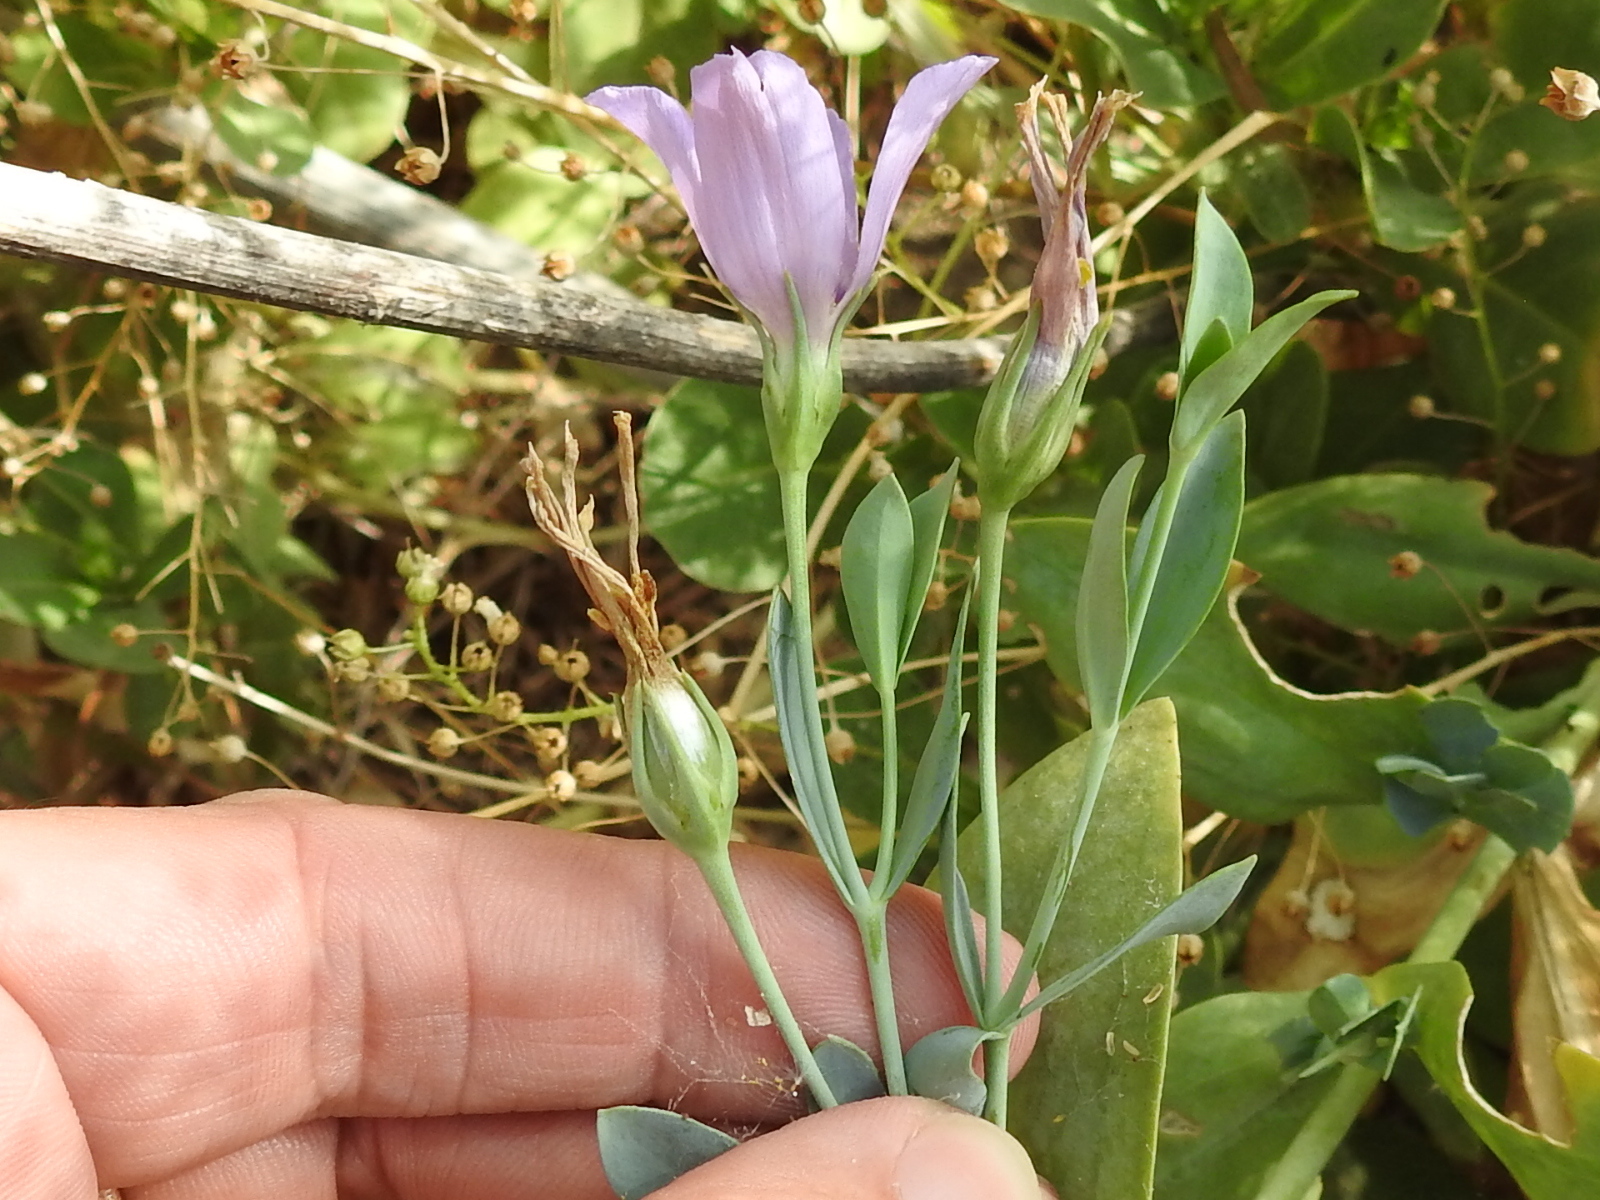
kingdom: Plantae
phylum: Tracheophyta
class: Magnoliopsida
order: Gentianales
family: Gentianaceae
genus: Eustoma
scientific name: Eustoma exaltatum
